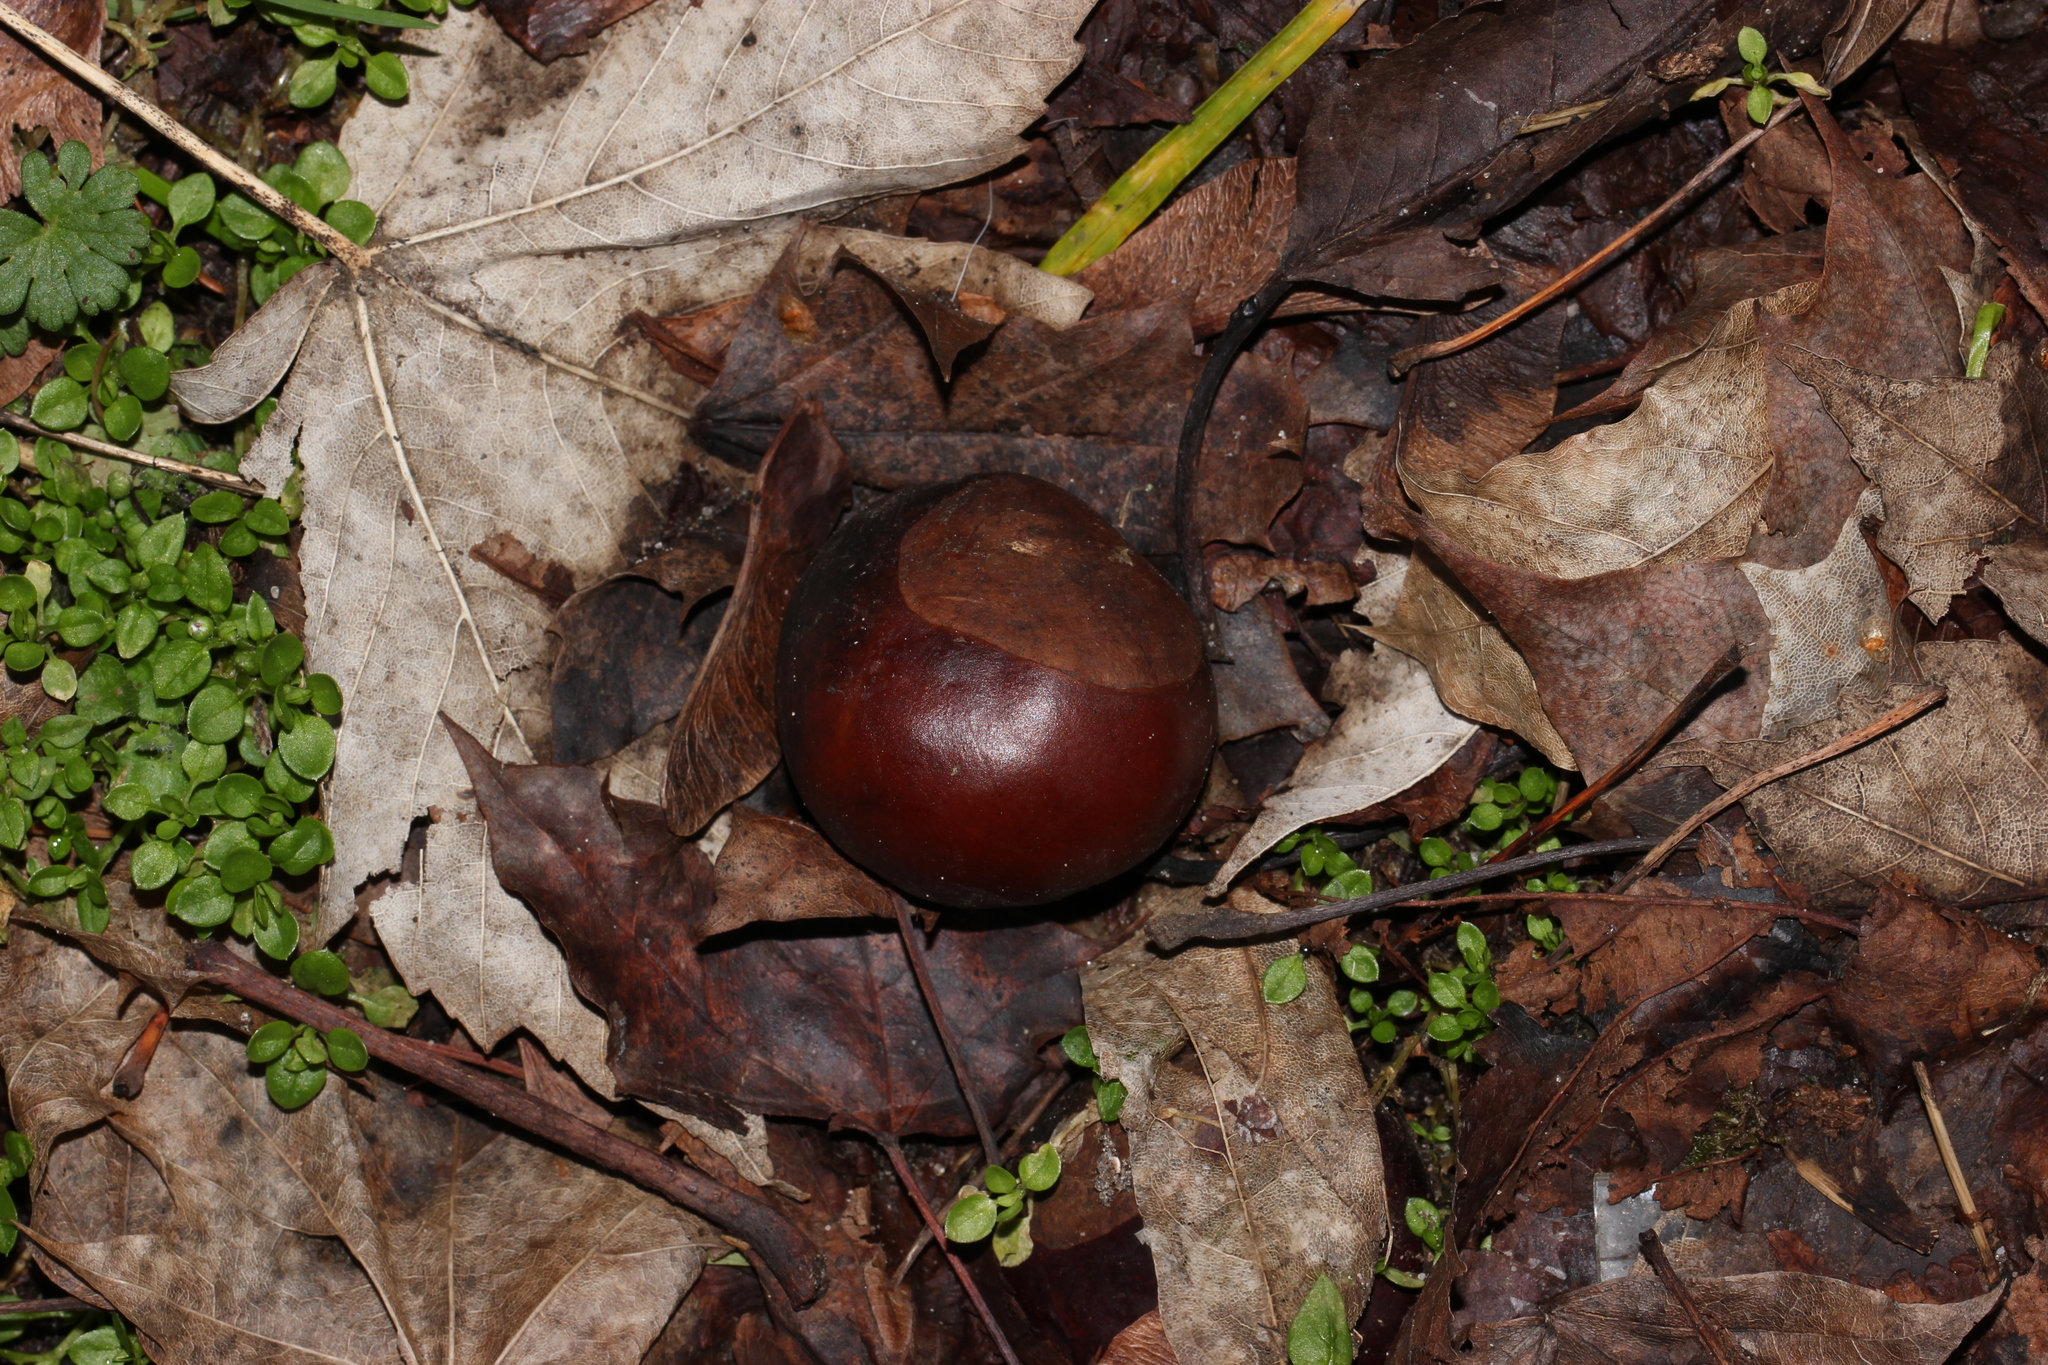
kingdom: Plantae
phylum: Tracheophyta
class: Magnoliopsida
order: Sapindales
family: Sapindaceae
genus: Aesculus
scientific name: Aesculus hippocastanum
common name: Horse-chestnut
